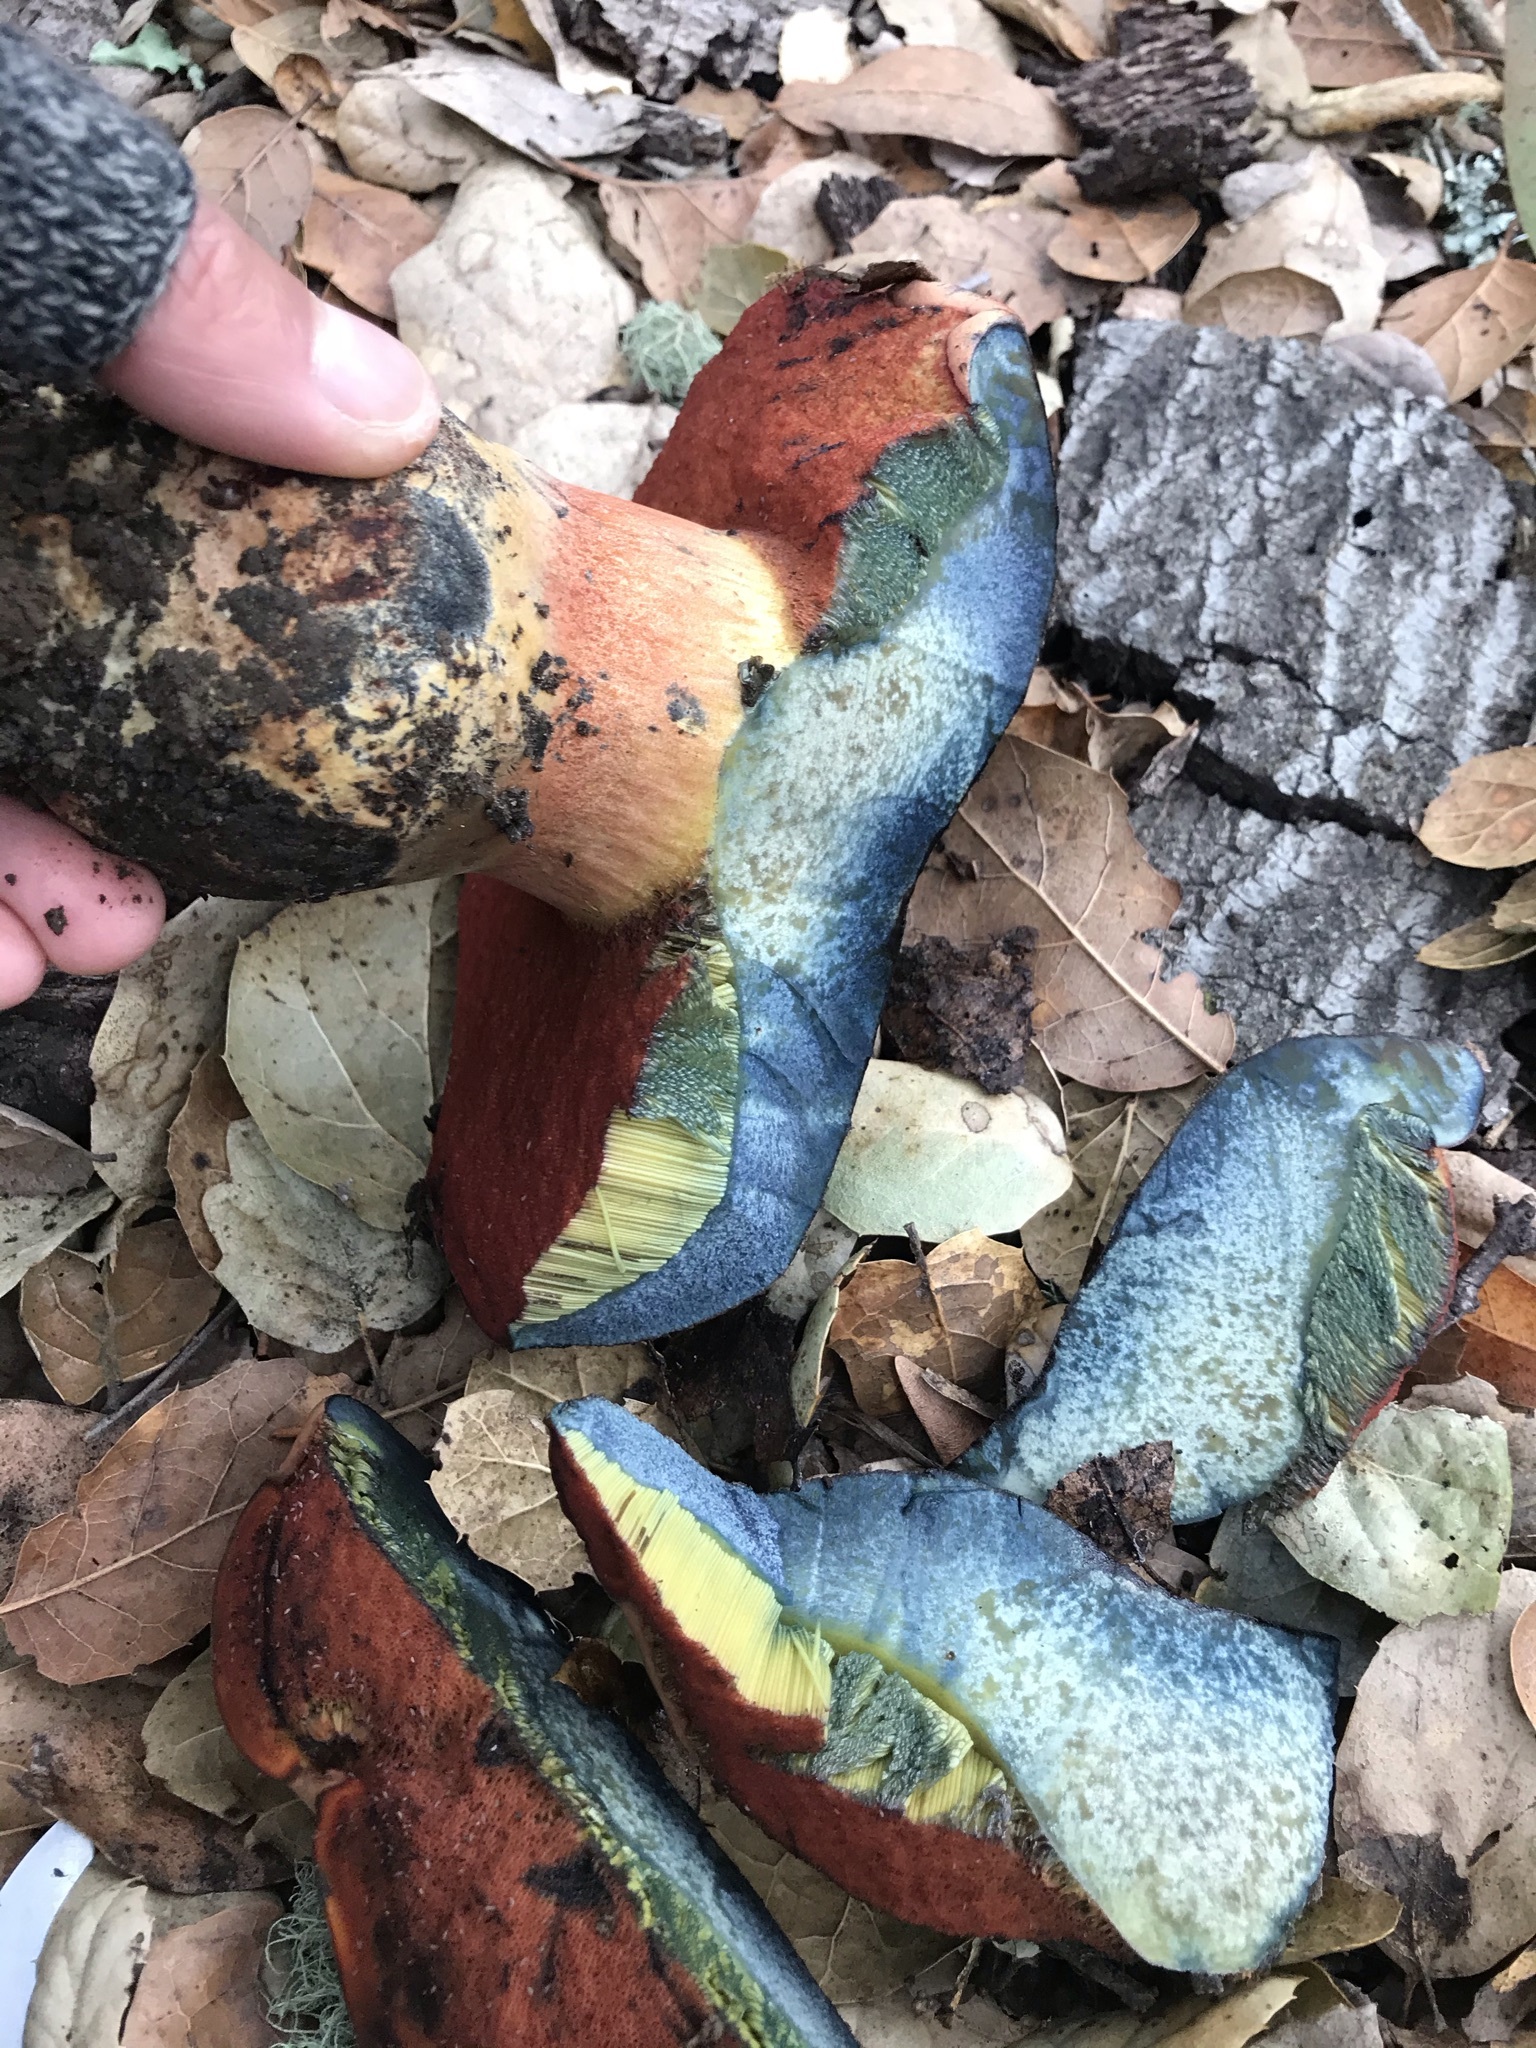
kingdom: Fungi
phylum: Basidiomycota
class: Agaricomycetes
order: Boletales
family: Boletaceae
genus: Suillellus
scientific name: Suillellus amygdalinus
